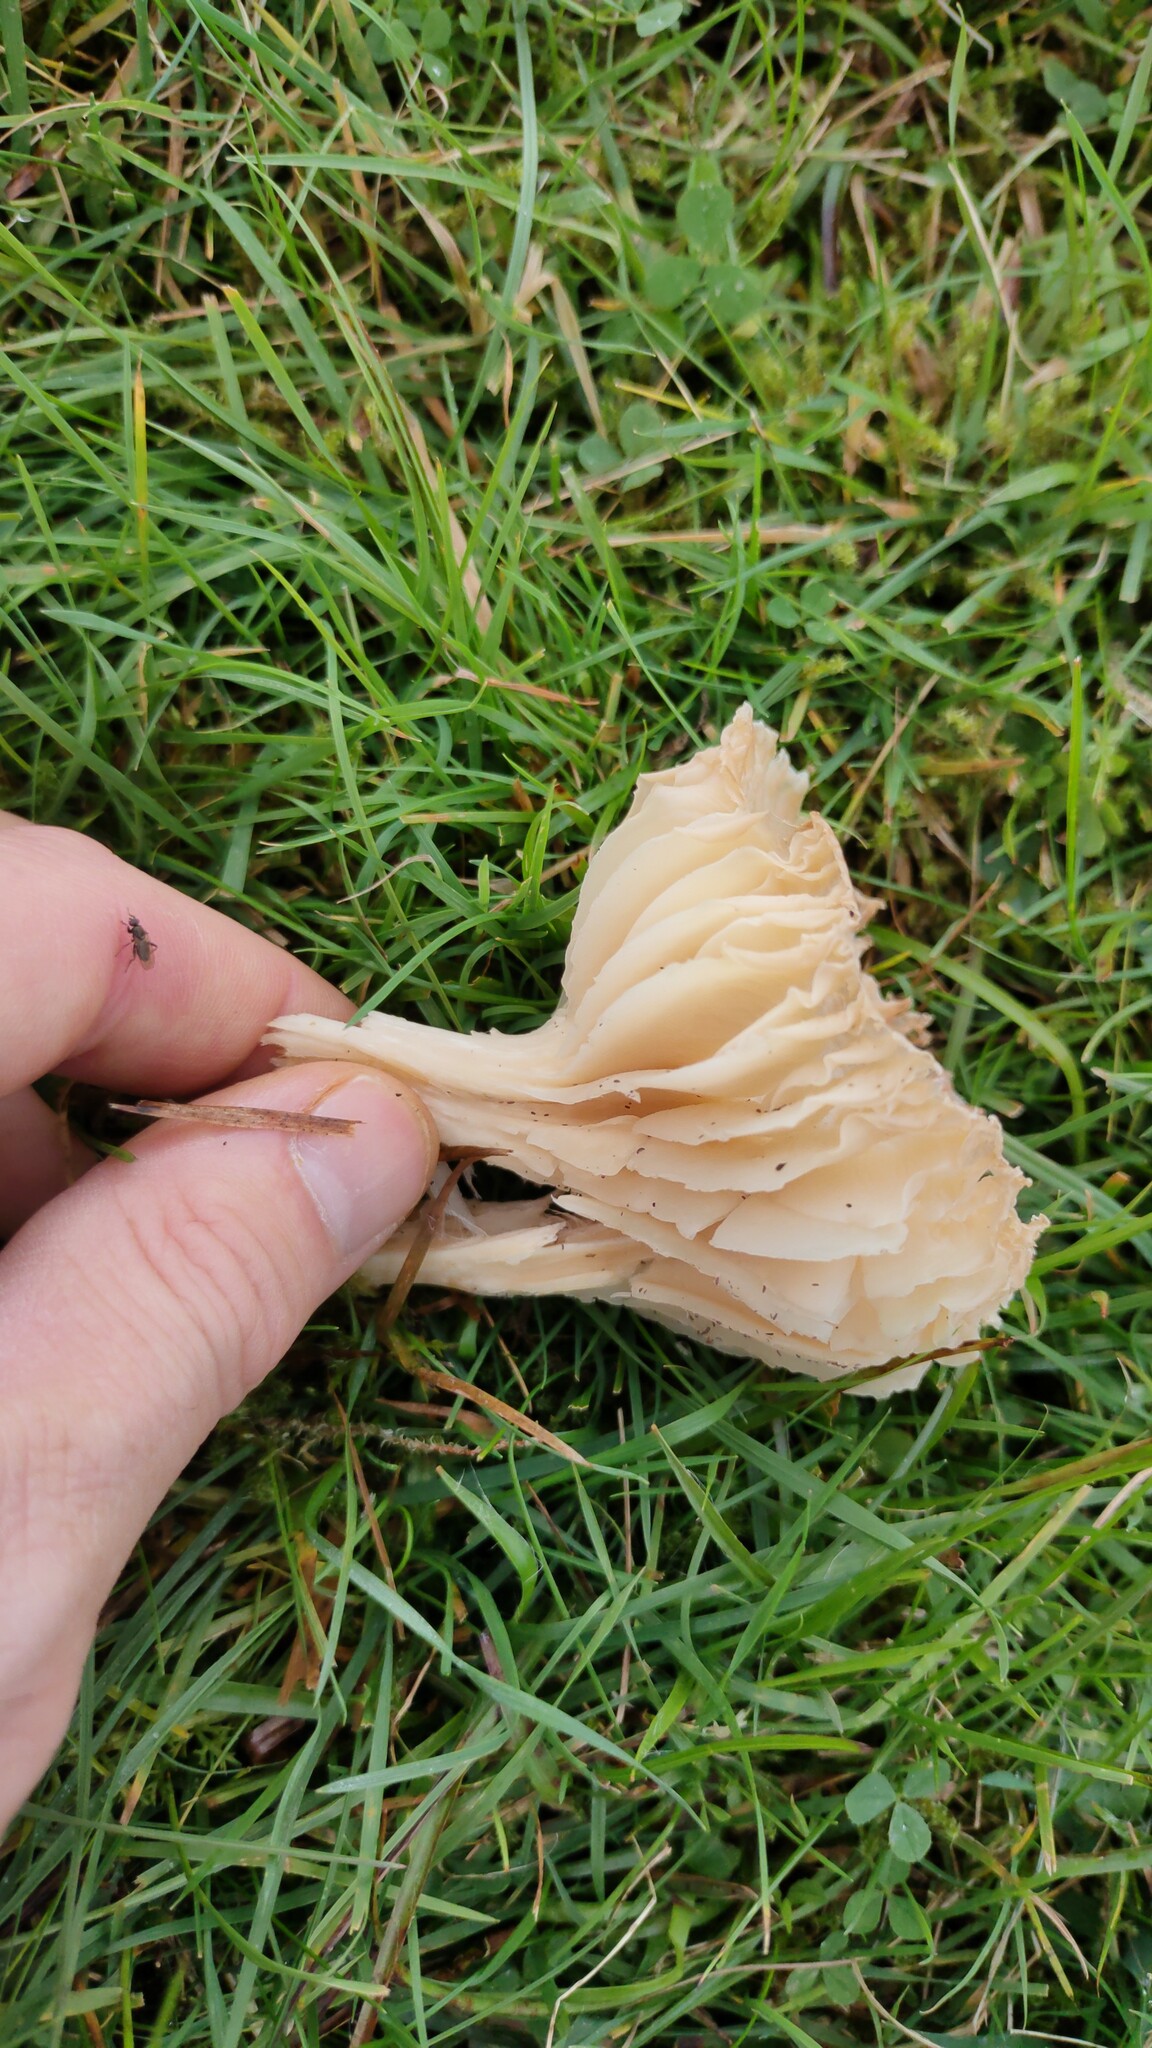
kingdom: Fungi
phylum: Basidiomycota
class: Agaricomycetes
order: Agaricales
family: Hygrophoraceae
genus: Cuphophyllus
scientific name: Cuphophyllus pratensis
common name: Meadow waxcap
